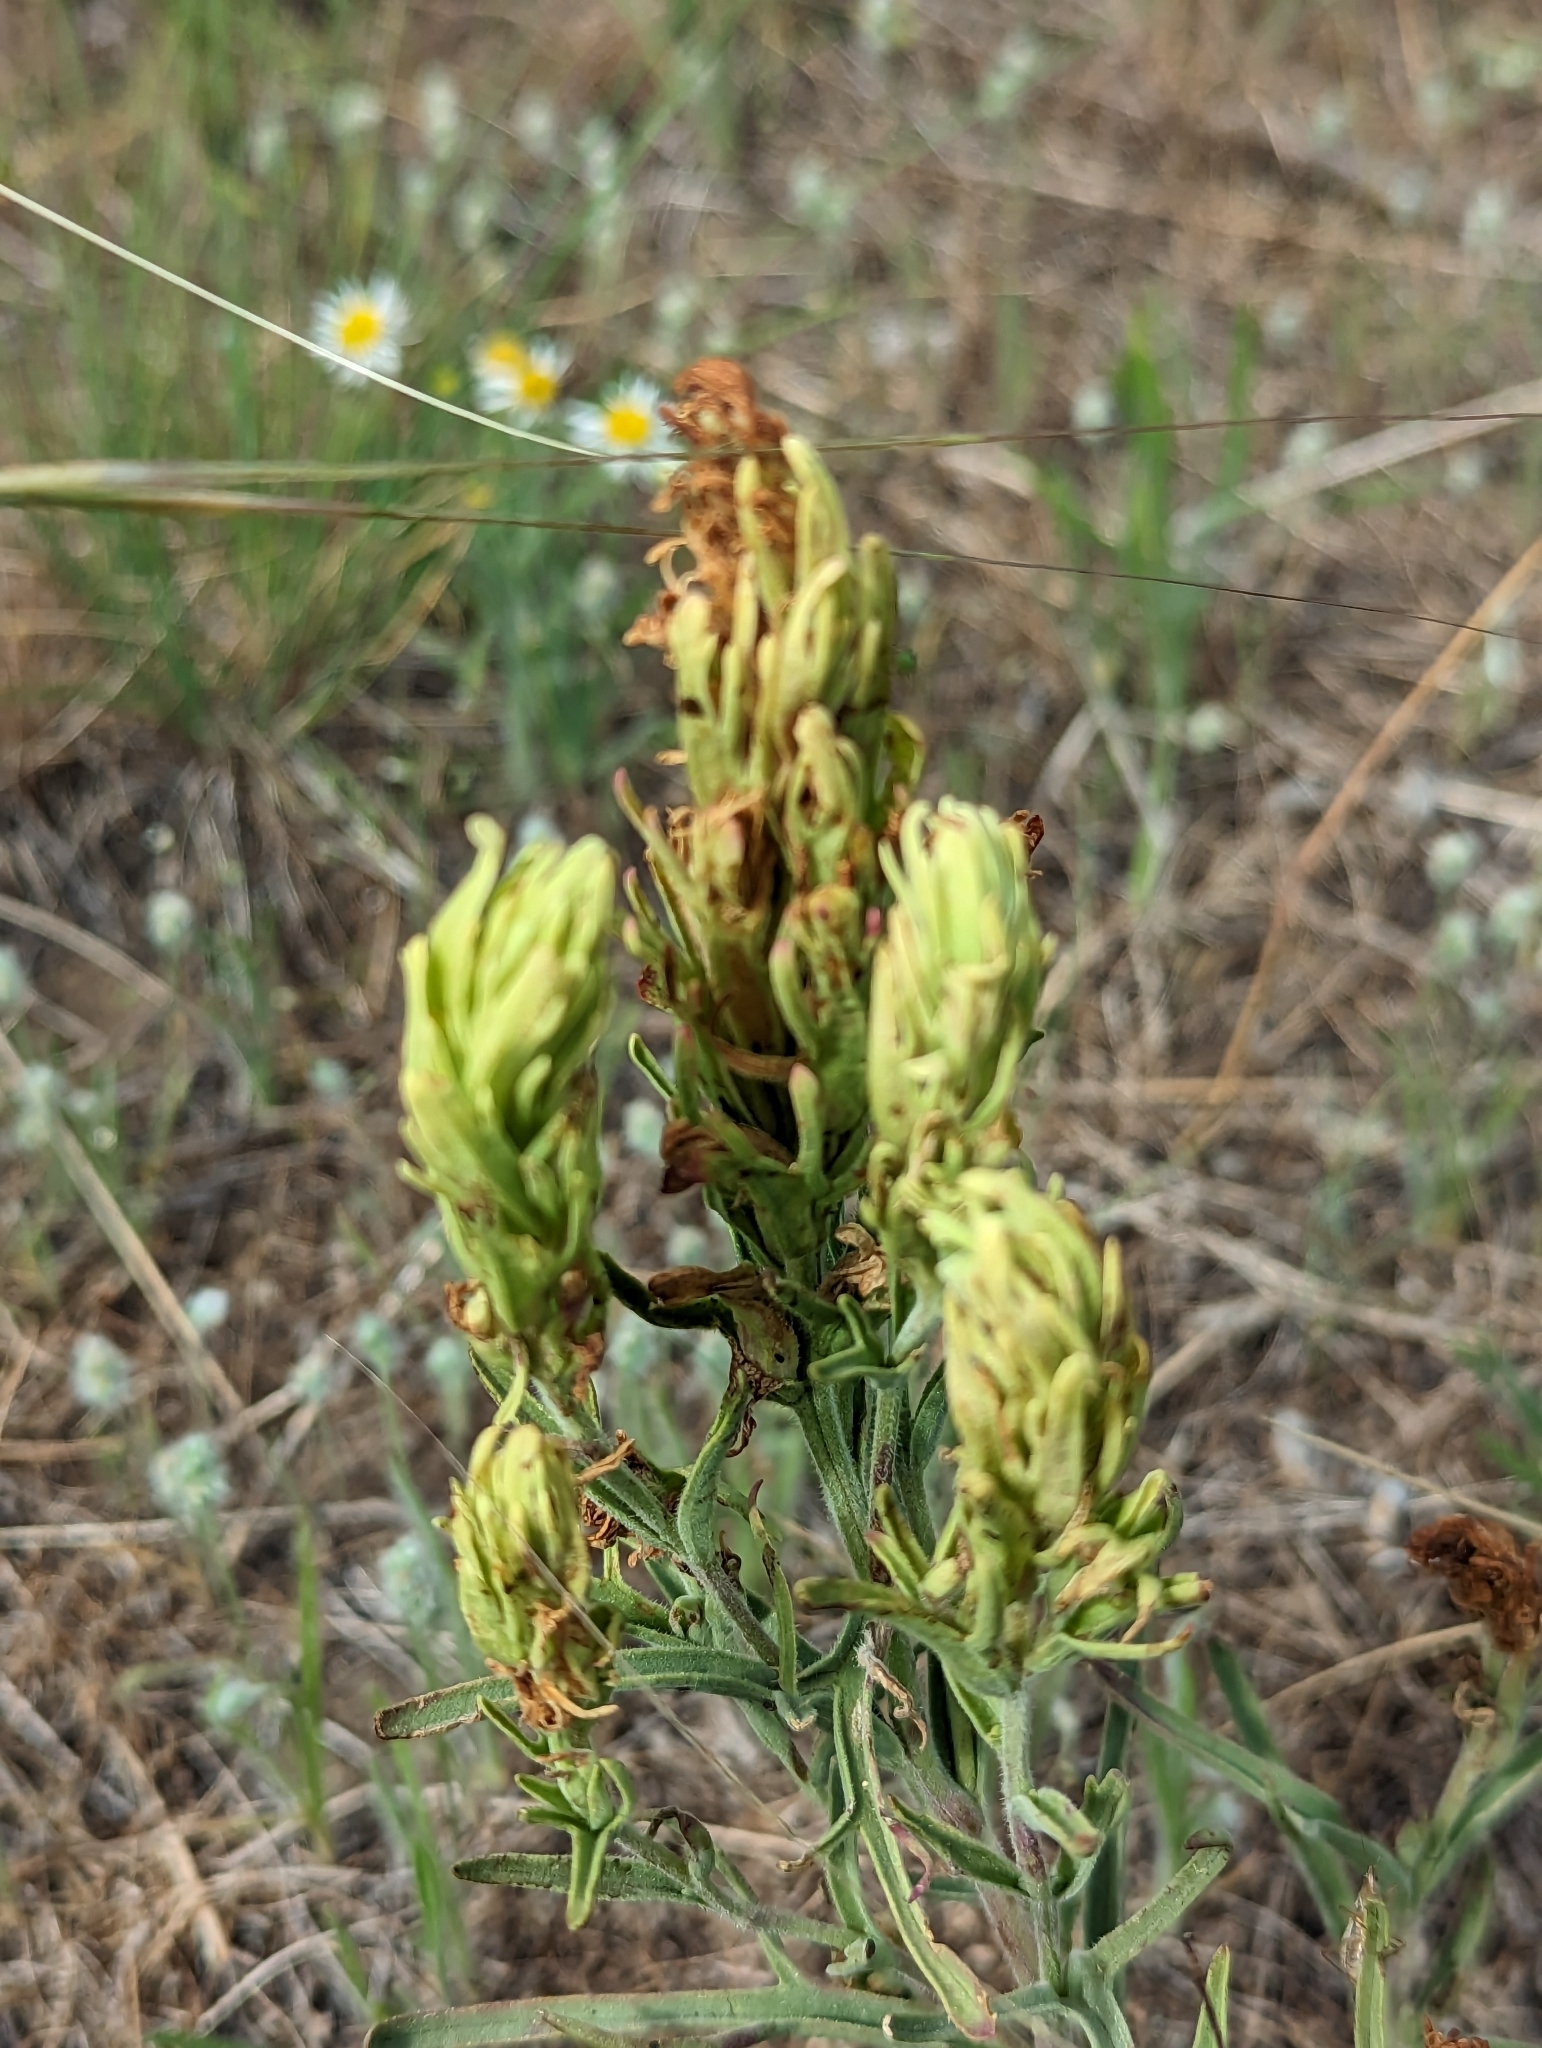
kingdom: Plantae
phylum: Tracheophyta
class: Magnoliopsida
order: Lamiales
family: Orobanchaceae
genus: Castilleja
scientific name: Castilleja thompsonii
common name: Thompson's paintbrush
